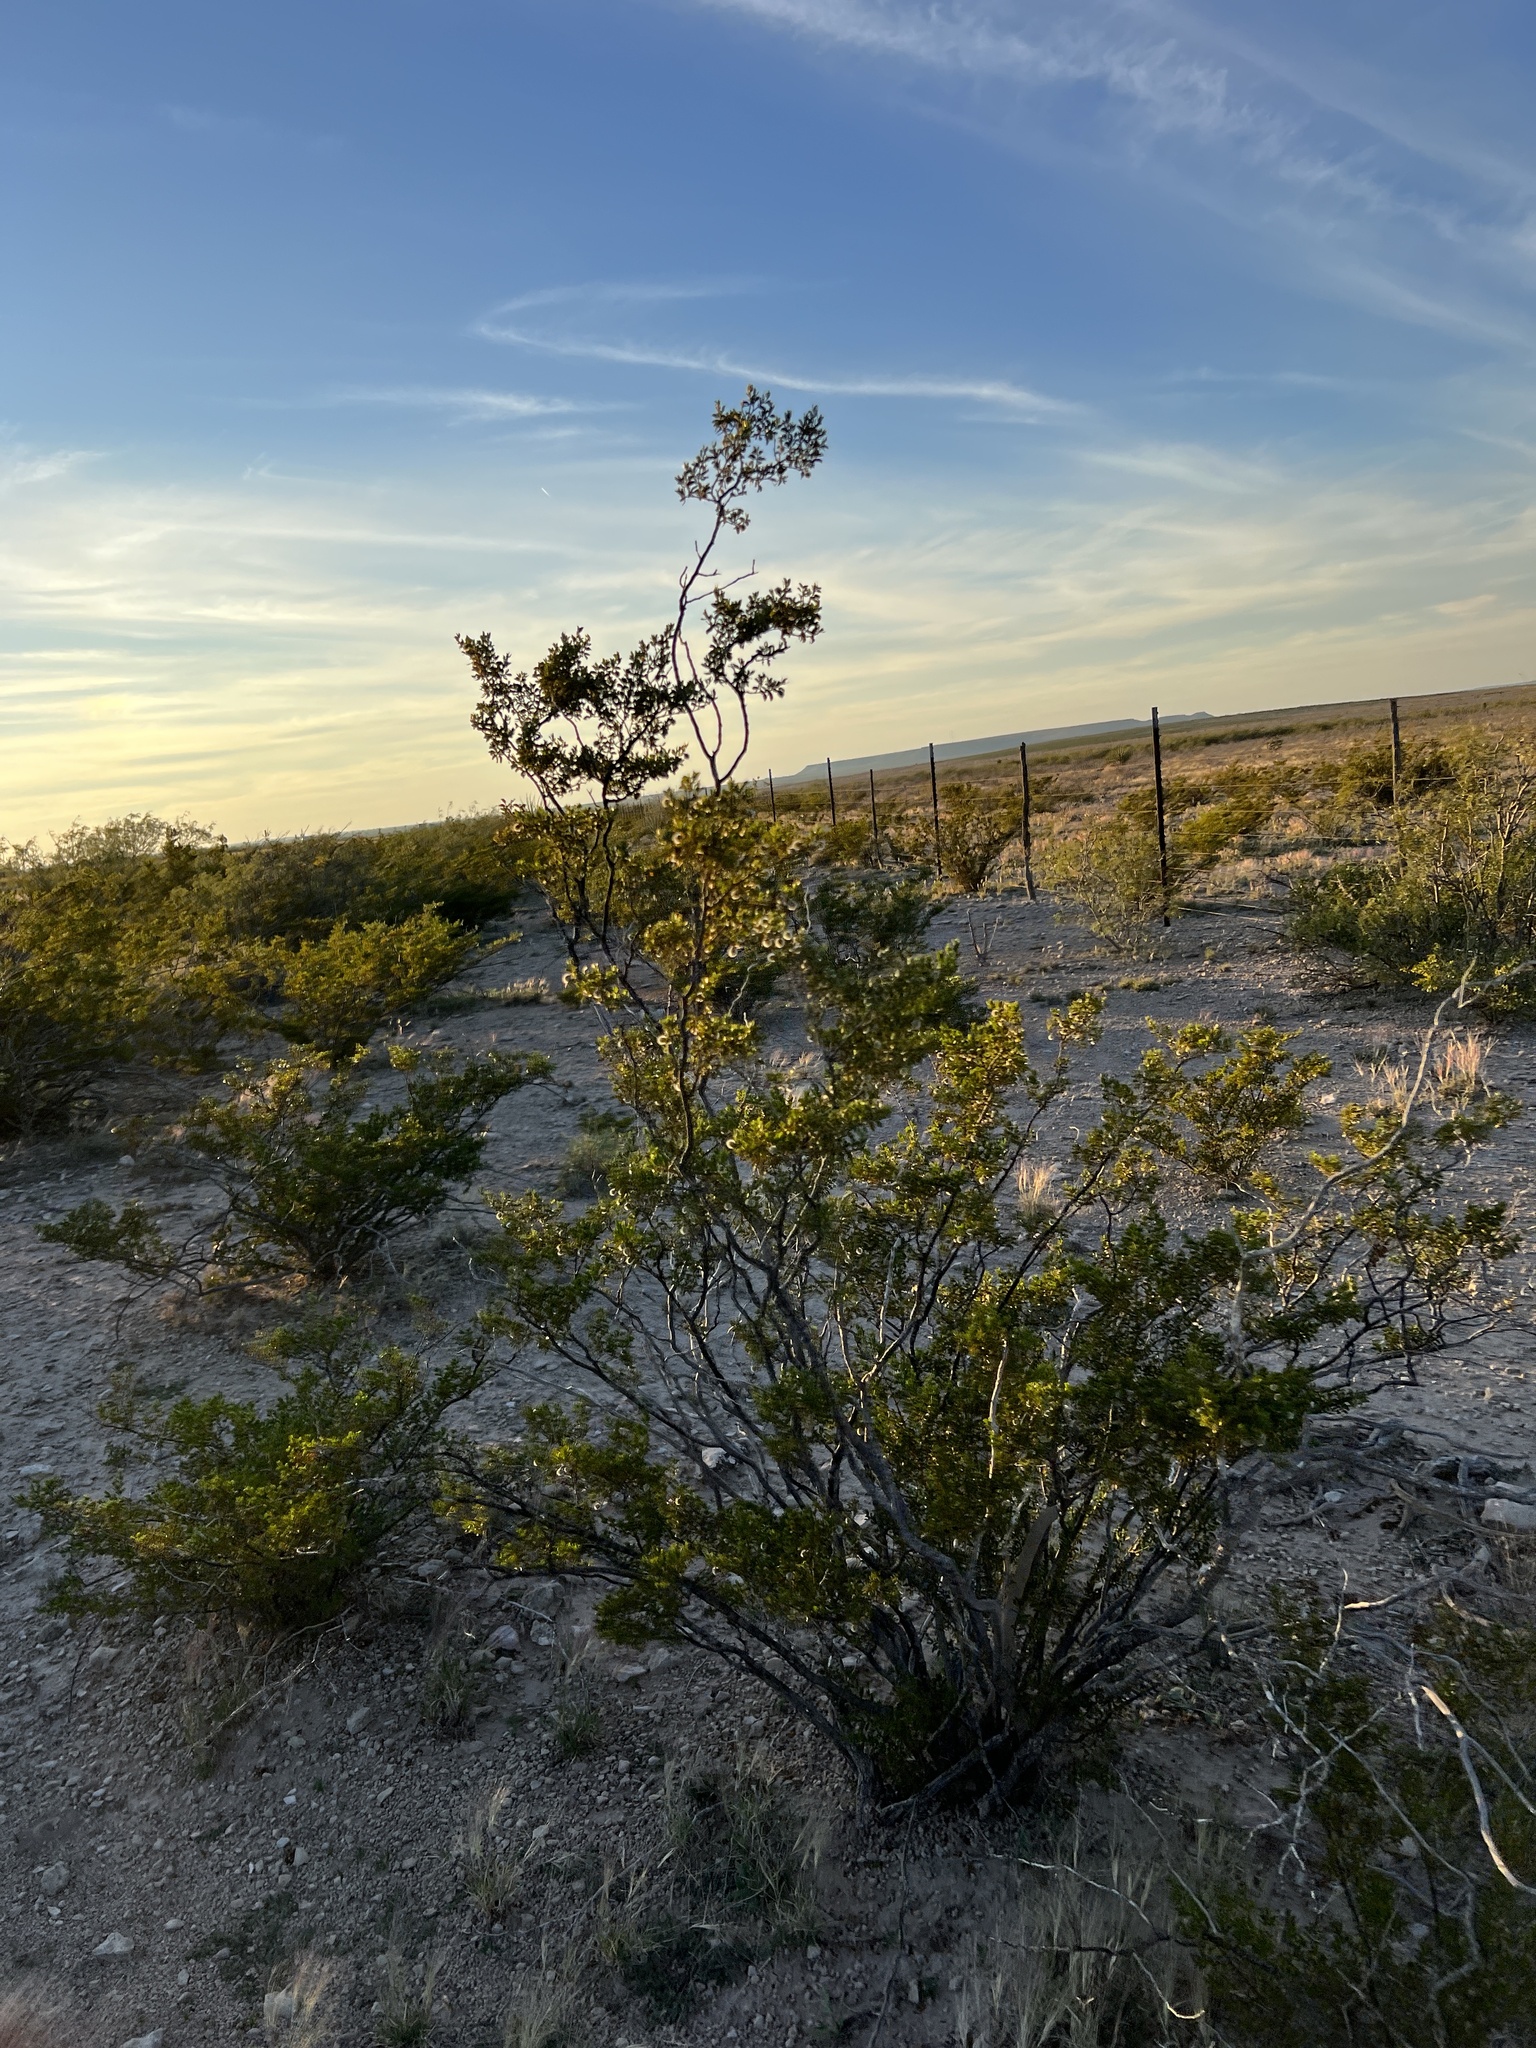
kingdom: Plantae
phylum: Tracheophyta
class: Magnoliopsida
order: Zygophyllales
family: Zygophyllaceae
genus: Larrea
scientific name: Larrea tridentata
